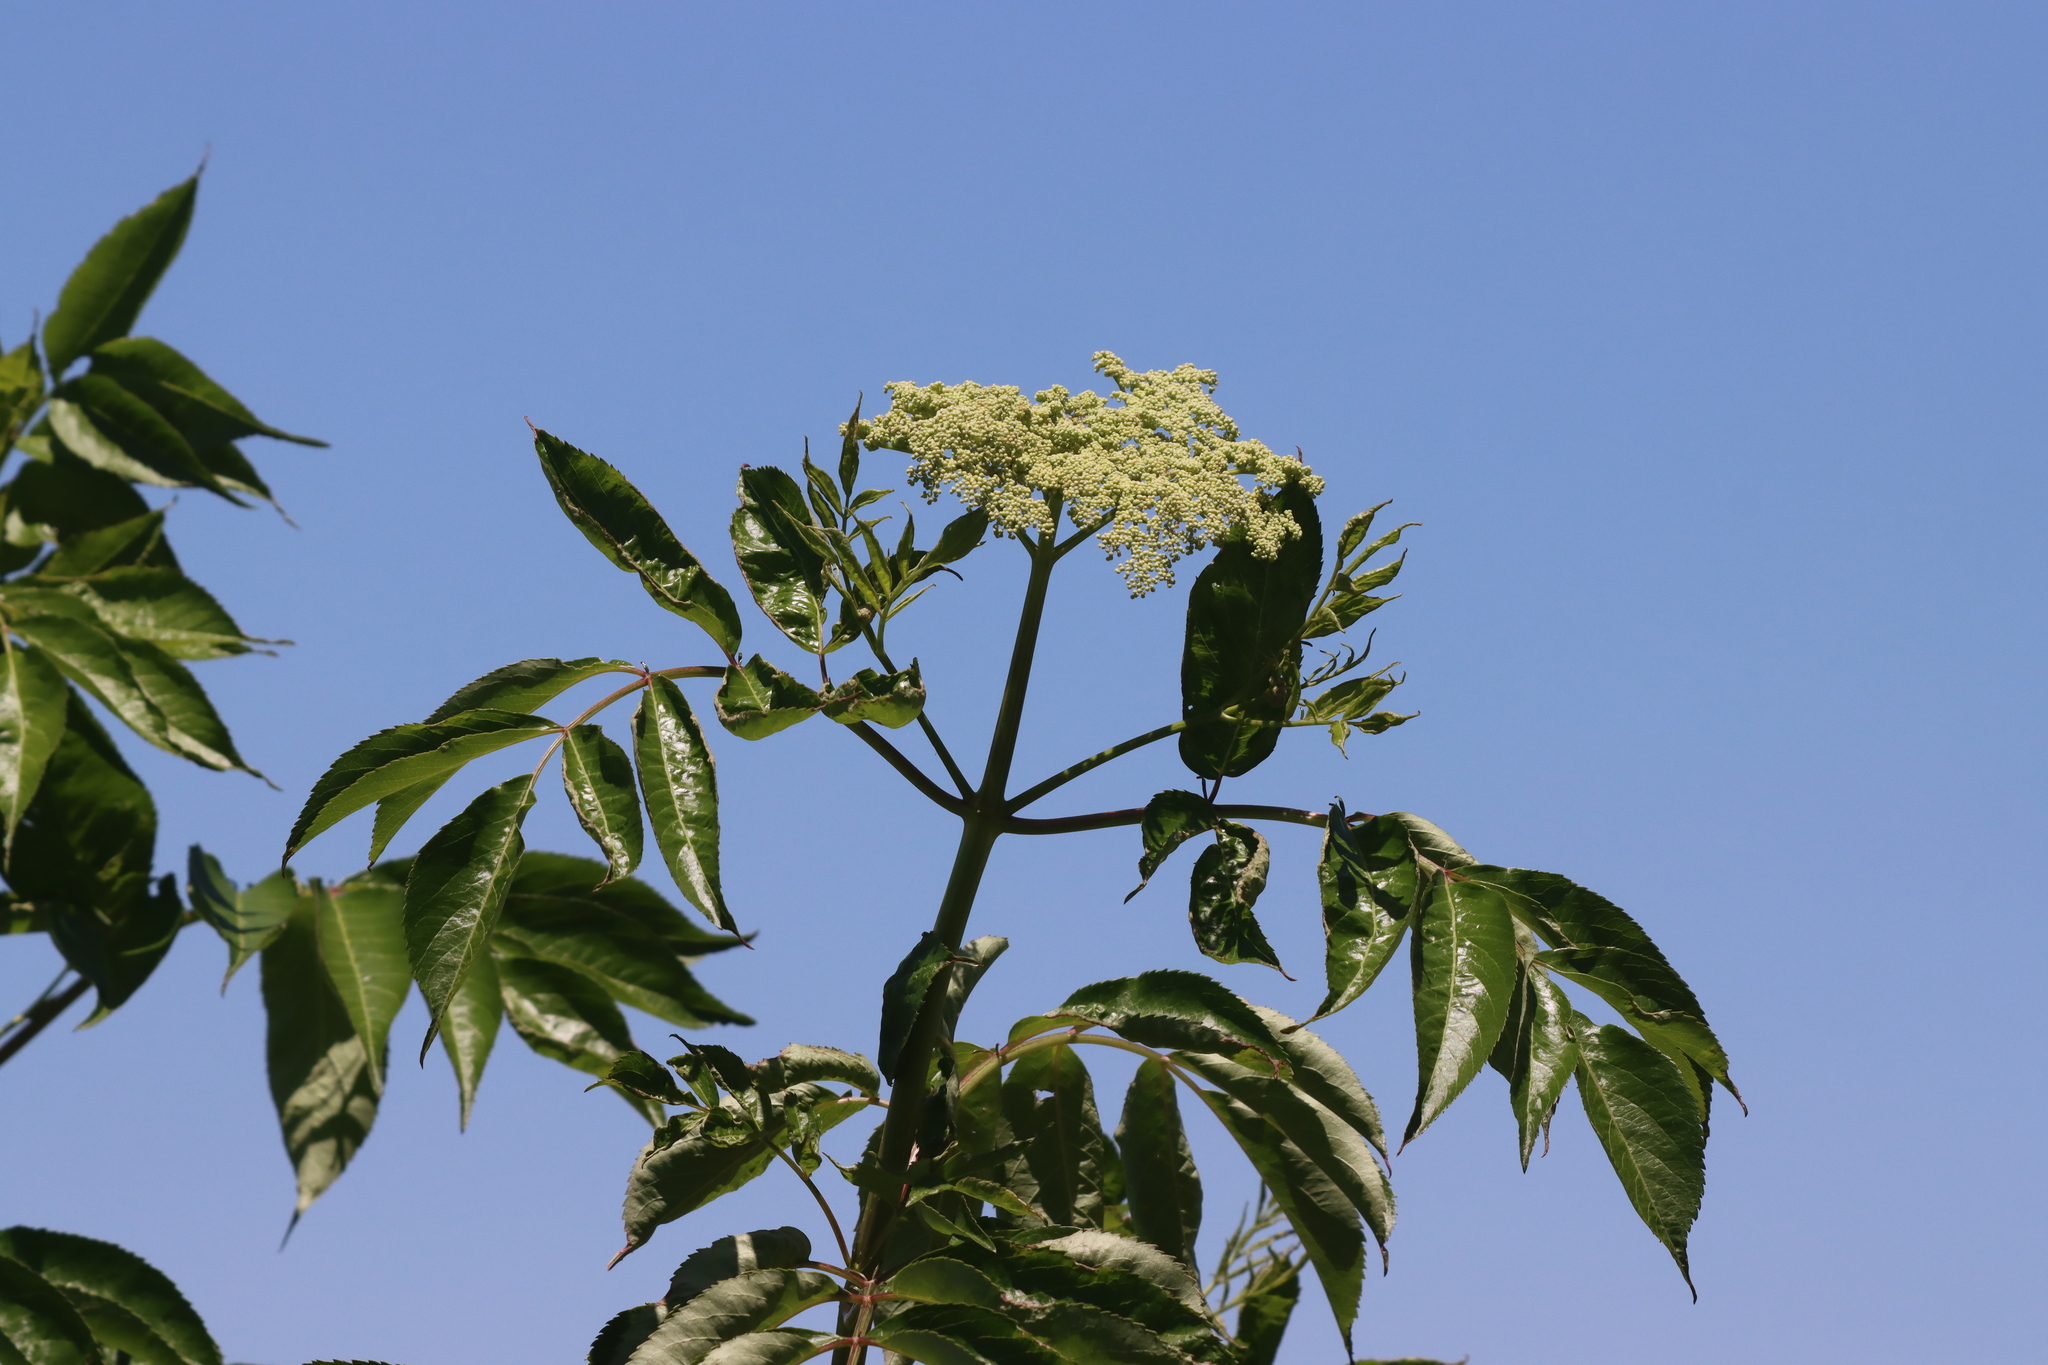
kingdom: Plantae
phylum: Tracheophyta
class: Magnoliopsida
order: Dipsacales
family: Viburnaceae
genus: Sambucus
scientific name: Sambucus canadensis
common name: American elder
